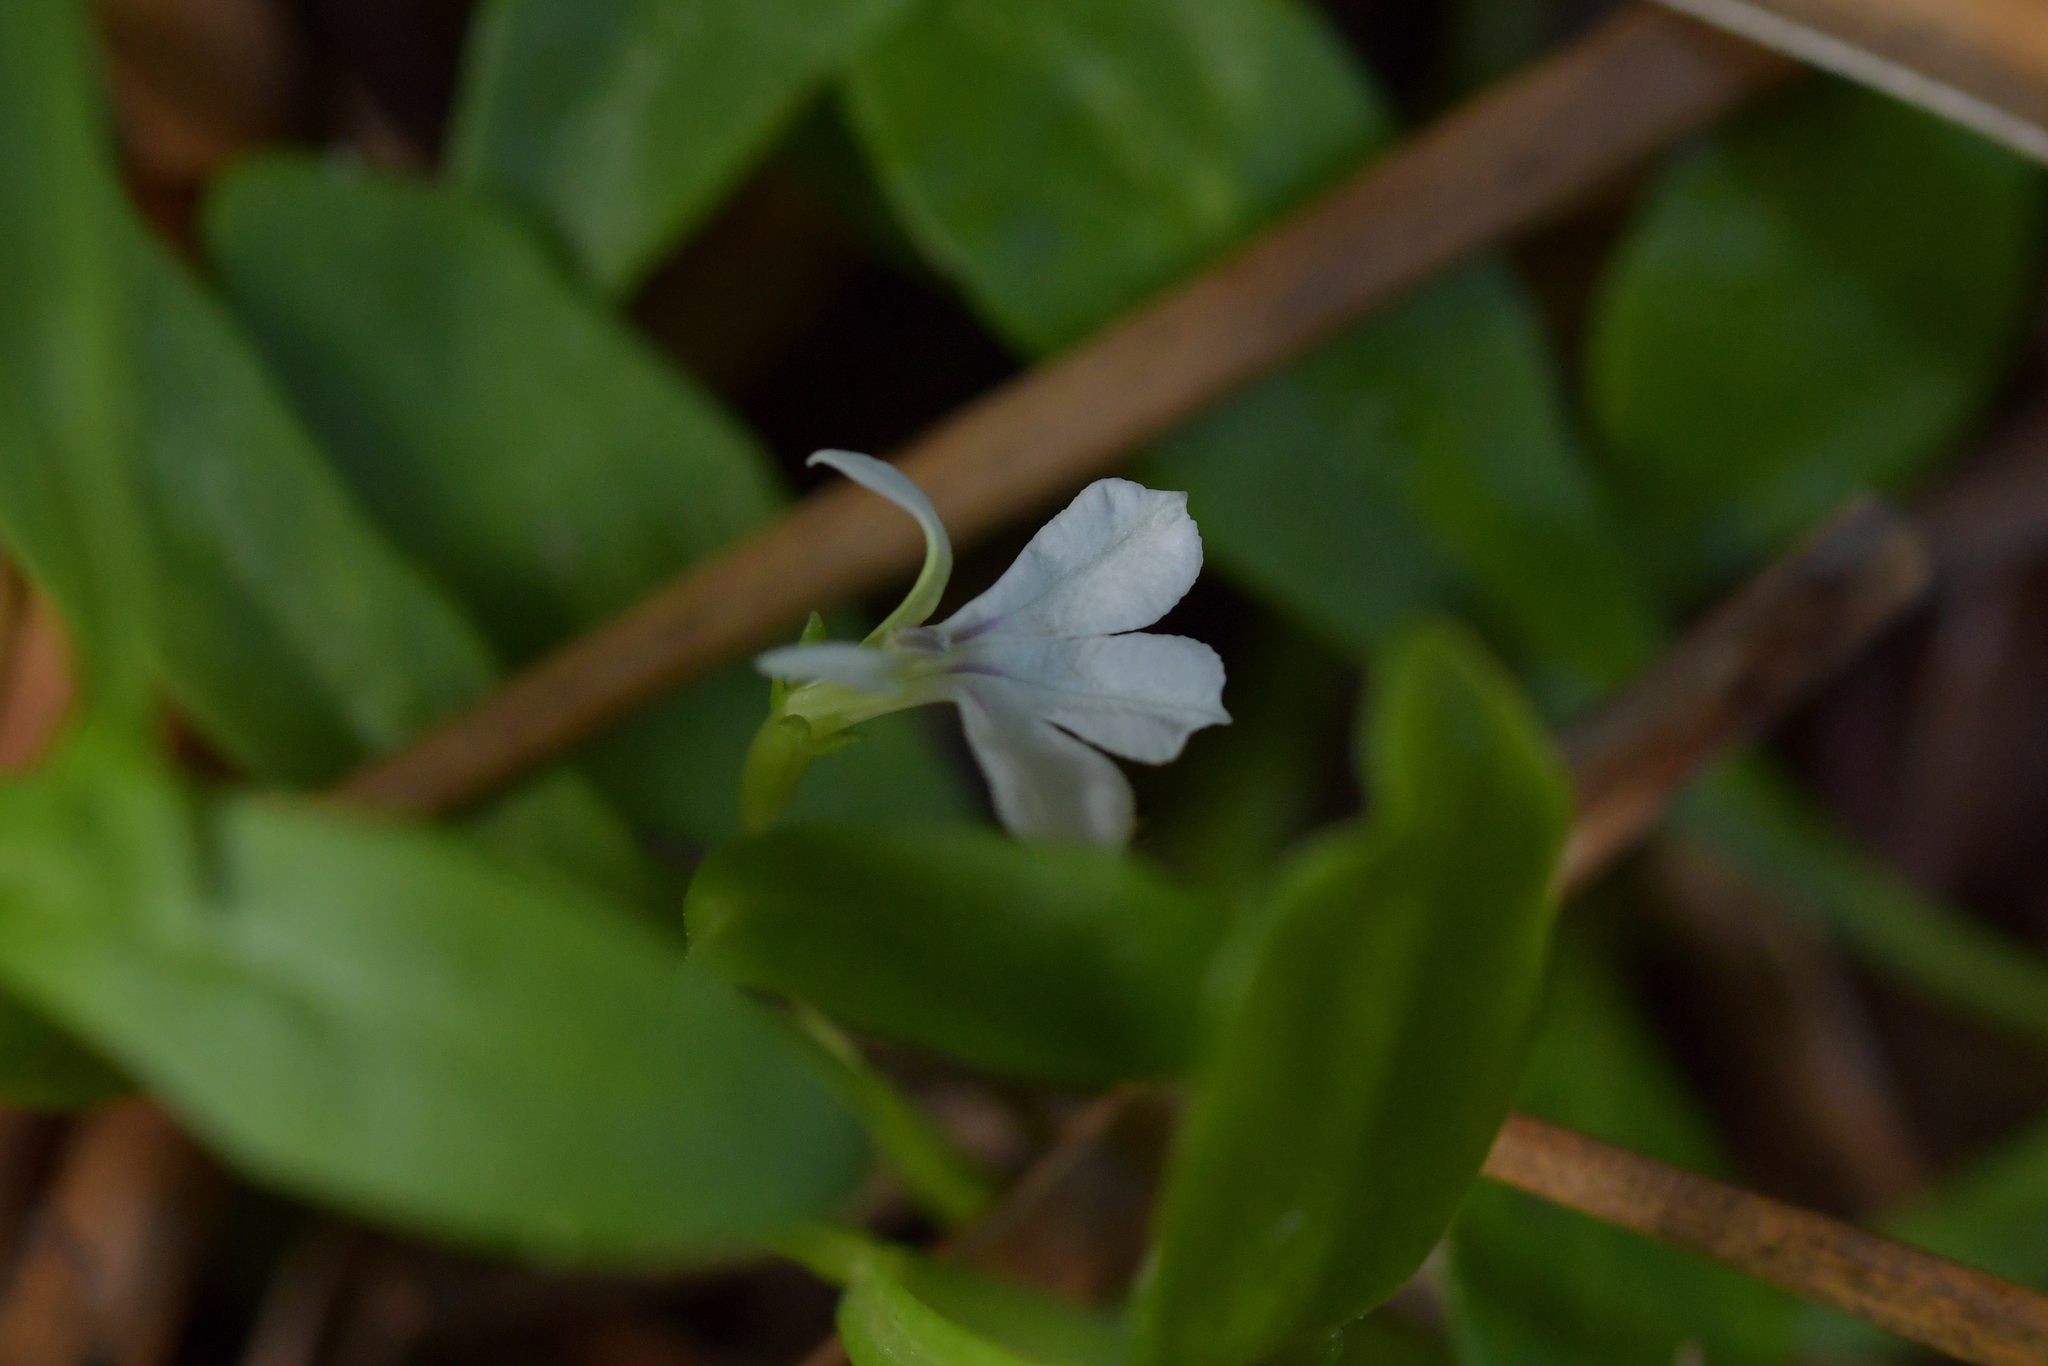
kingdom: Plantae
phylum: Tracheophyta
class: Magnoliopsida
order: Asterales
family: Campanulaceae
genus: Lobelia
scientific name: Lobelia anceps
